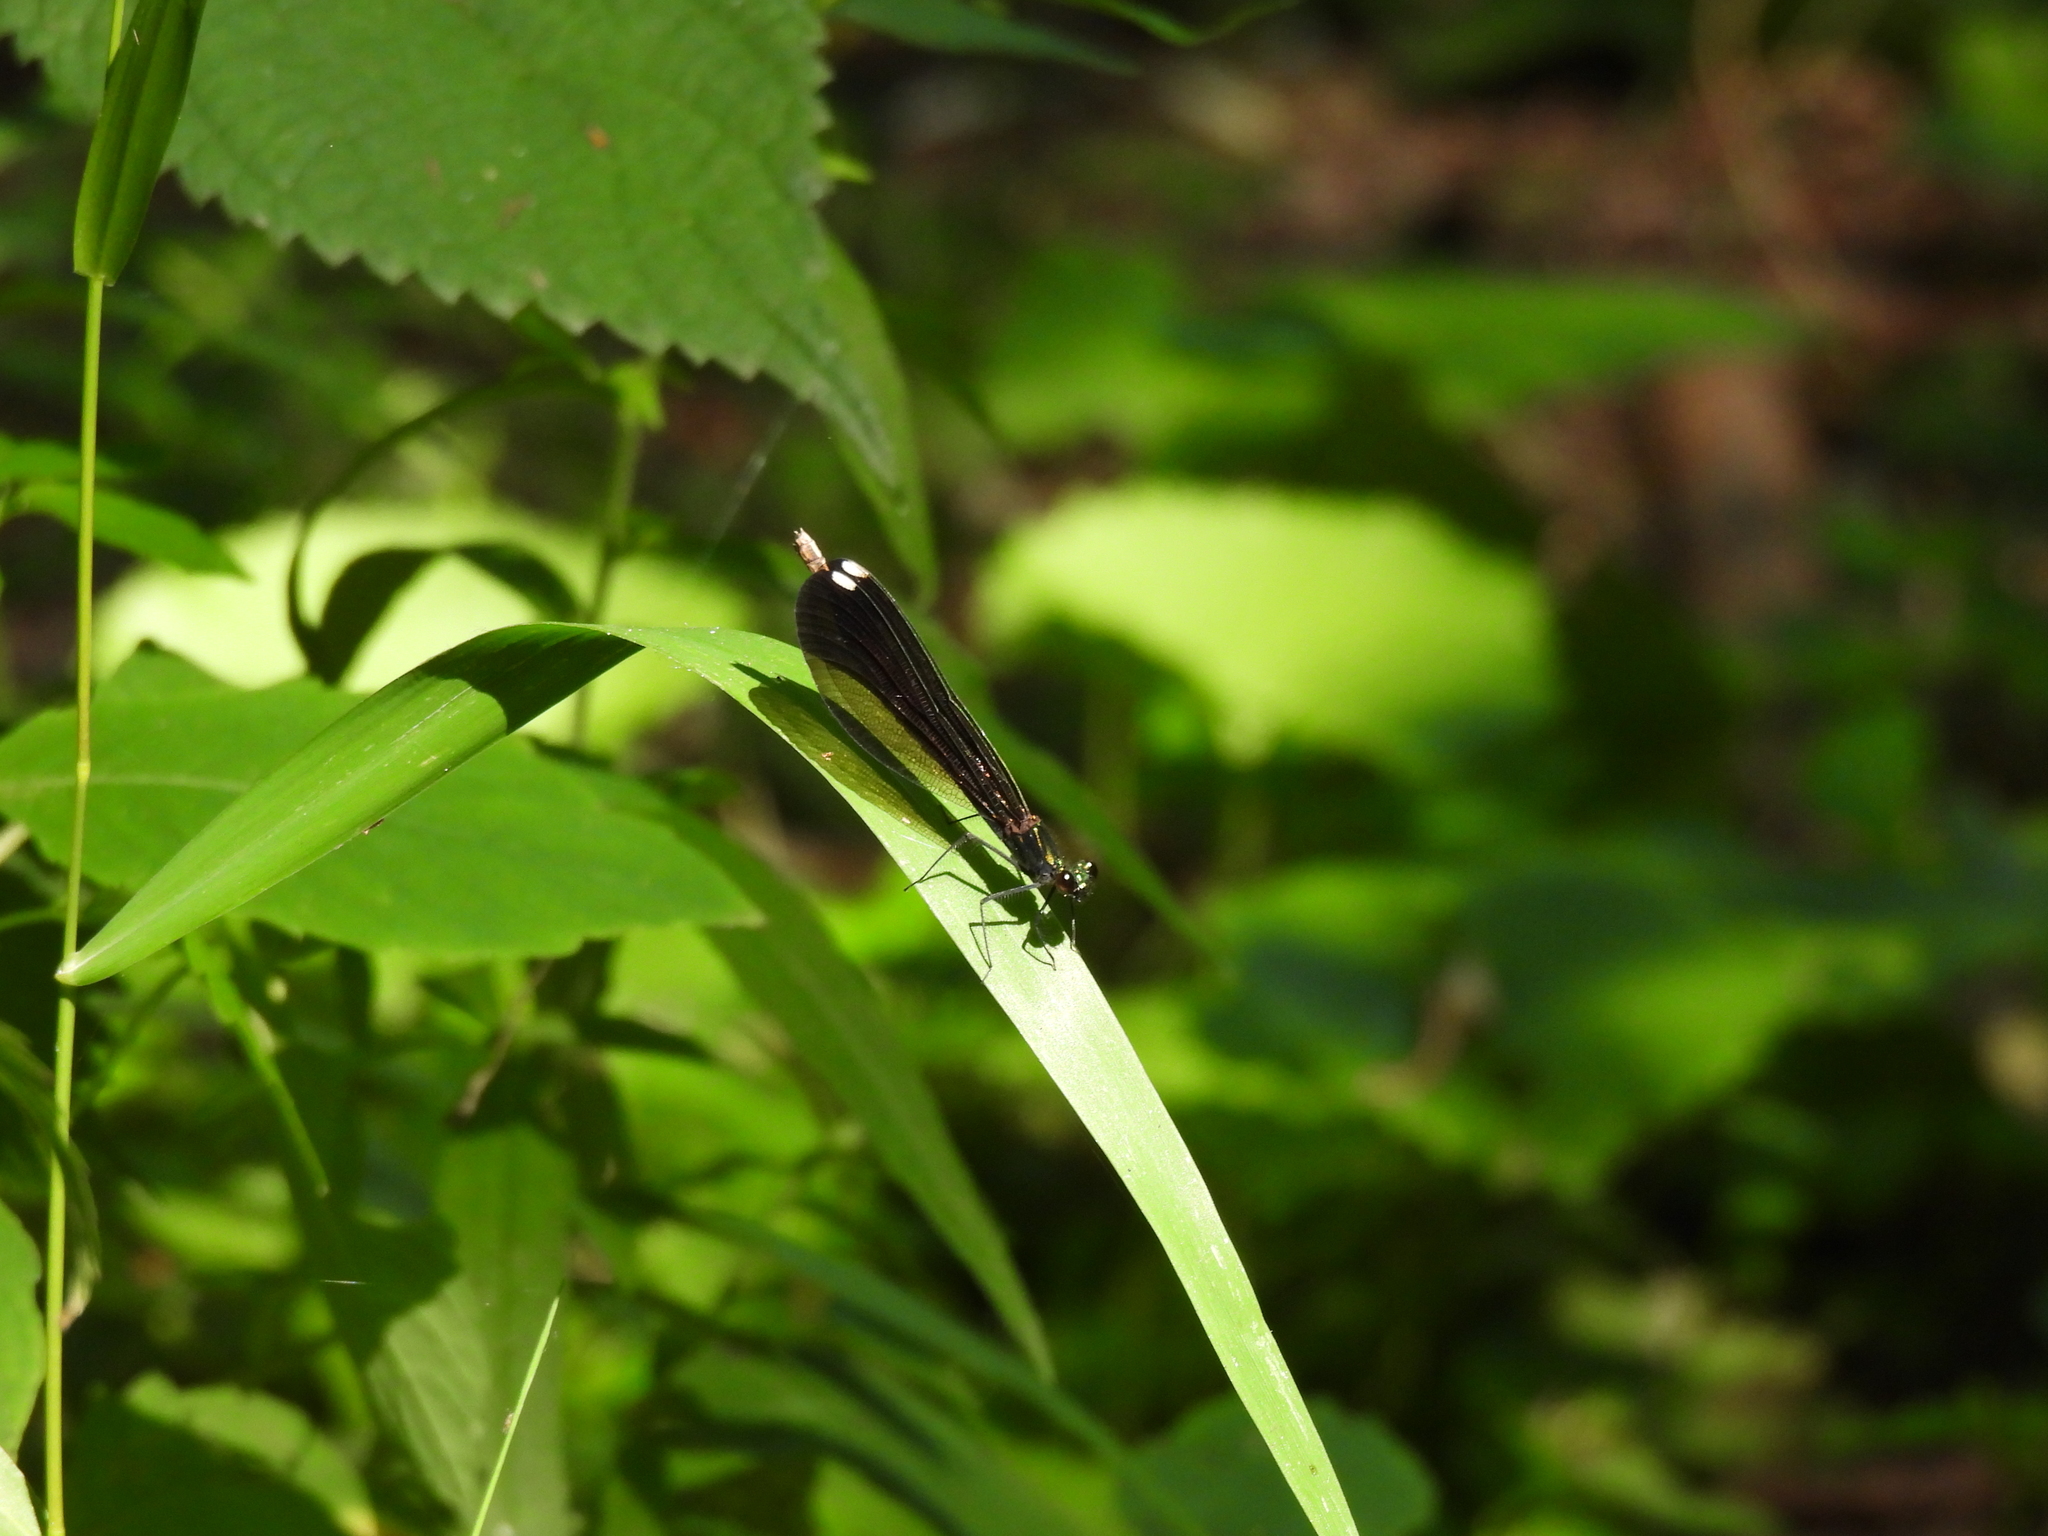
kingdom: Animalia
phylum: Arthropoda
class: Insecta
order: Odonata
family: Calopterygidae
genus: Calopteryx
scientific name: Calopteryx maculata
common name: Ebony jewelwing
